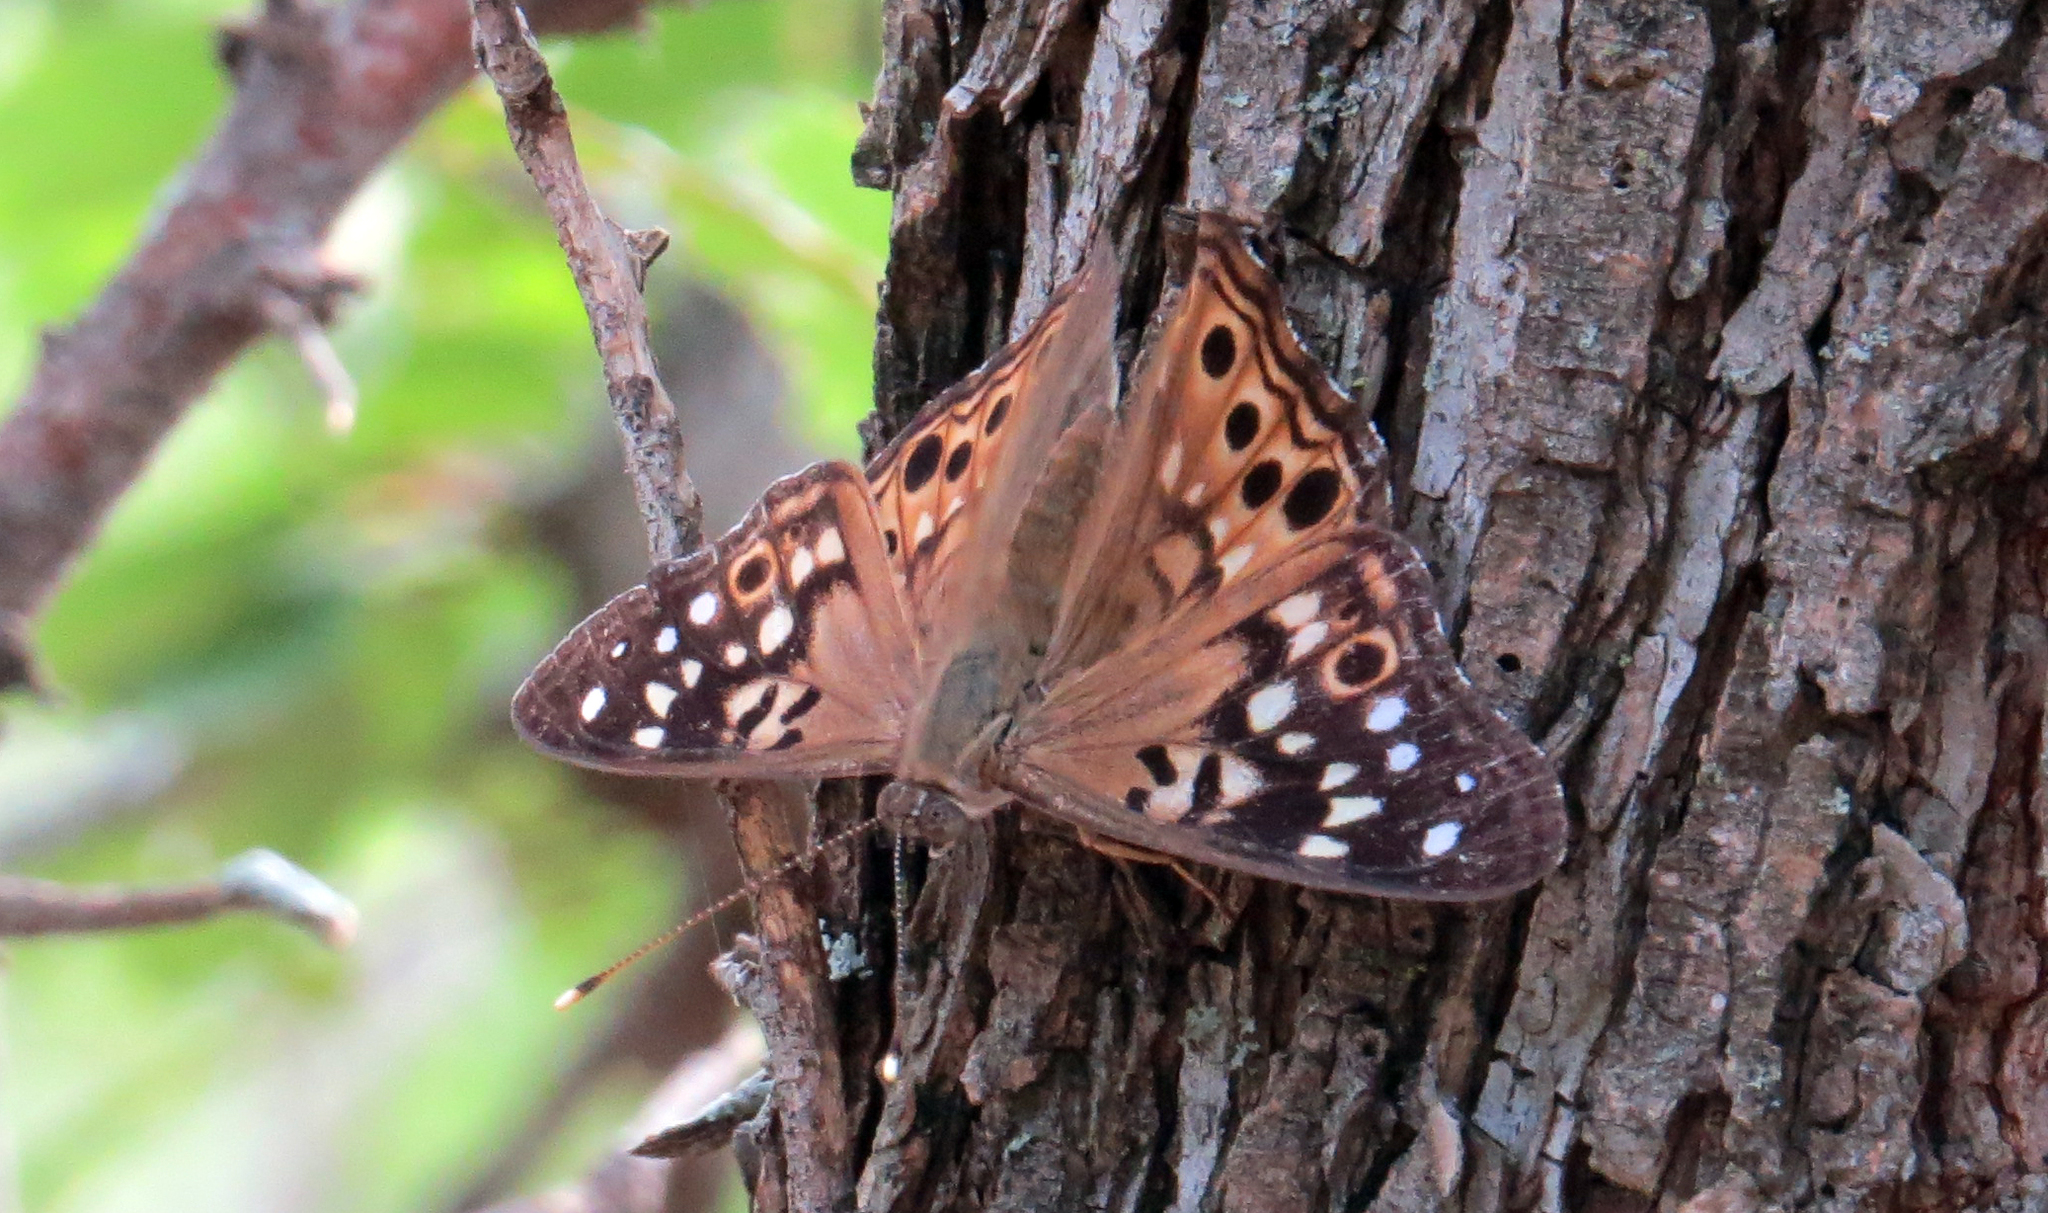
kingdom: Animalia
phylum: Arthropoda
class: Insecta
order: Lepidoptera
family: Nymphalidae
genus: Asterocampa
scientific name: Asterocampa celtis
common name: Hackberry emperor
